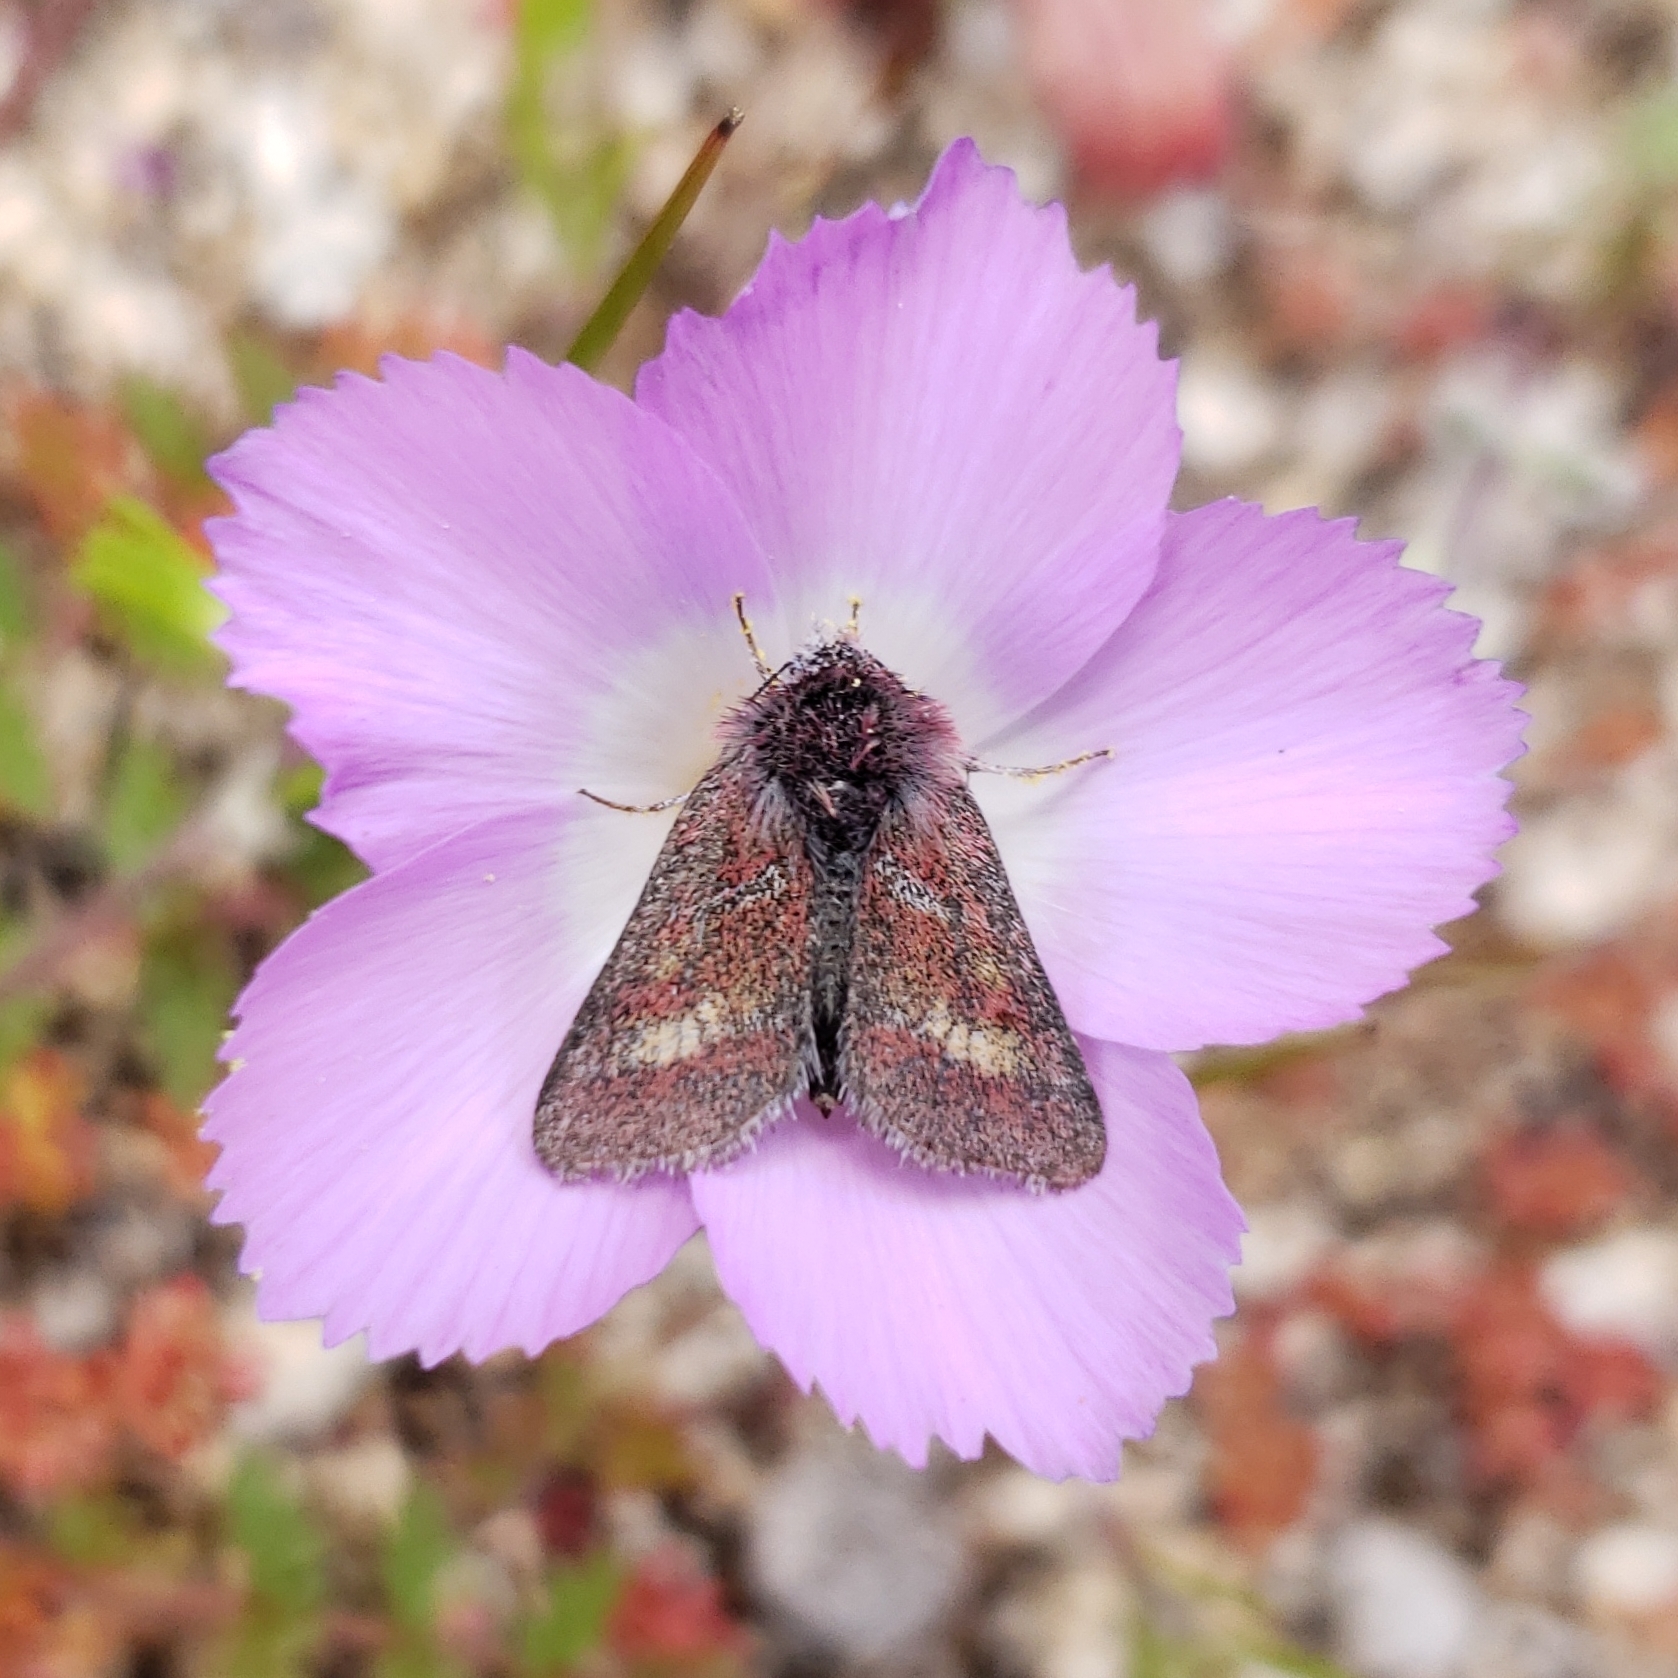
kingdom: Animalia
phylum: Arthropoda
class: Insecta
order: Lepidoptera
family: Noctuidae
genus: Schinia
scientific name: Schinia pulchripennis
